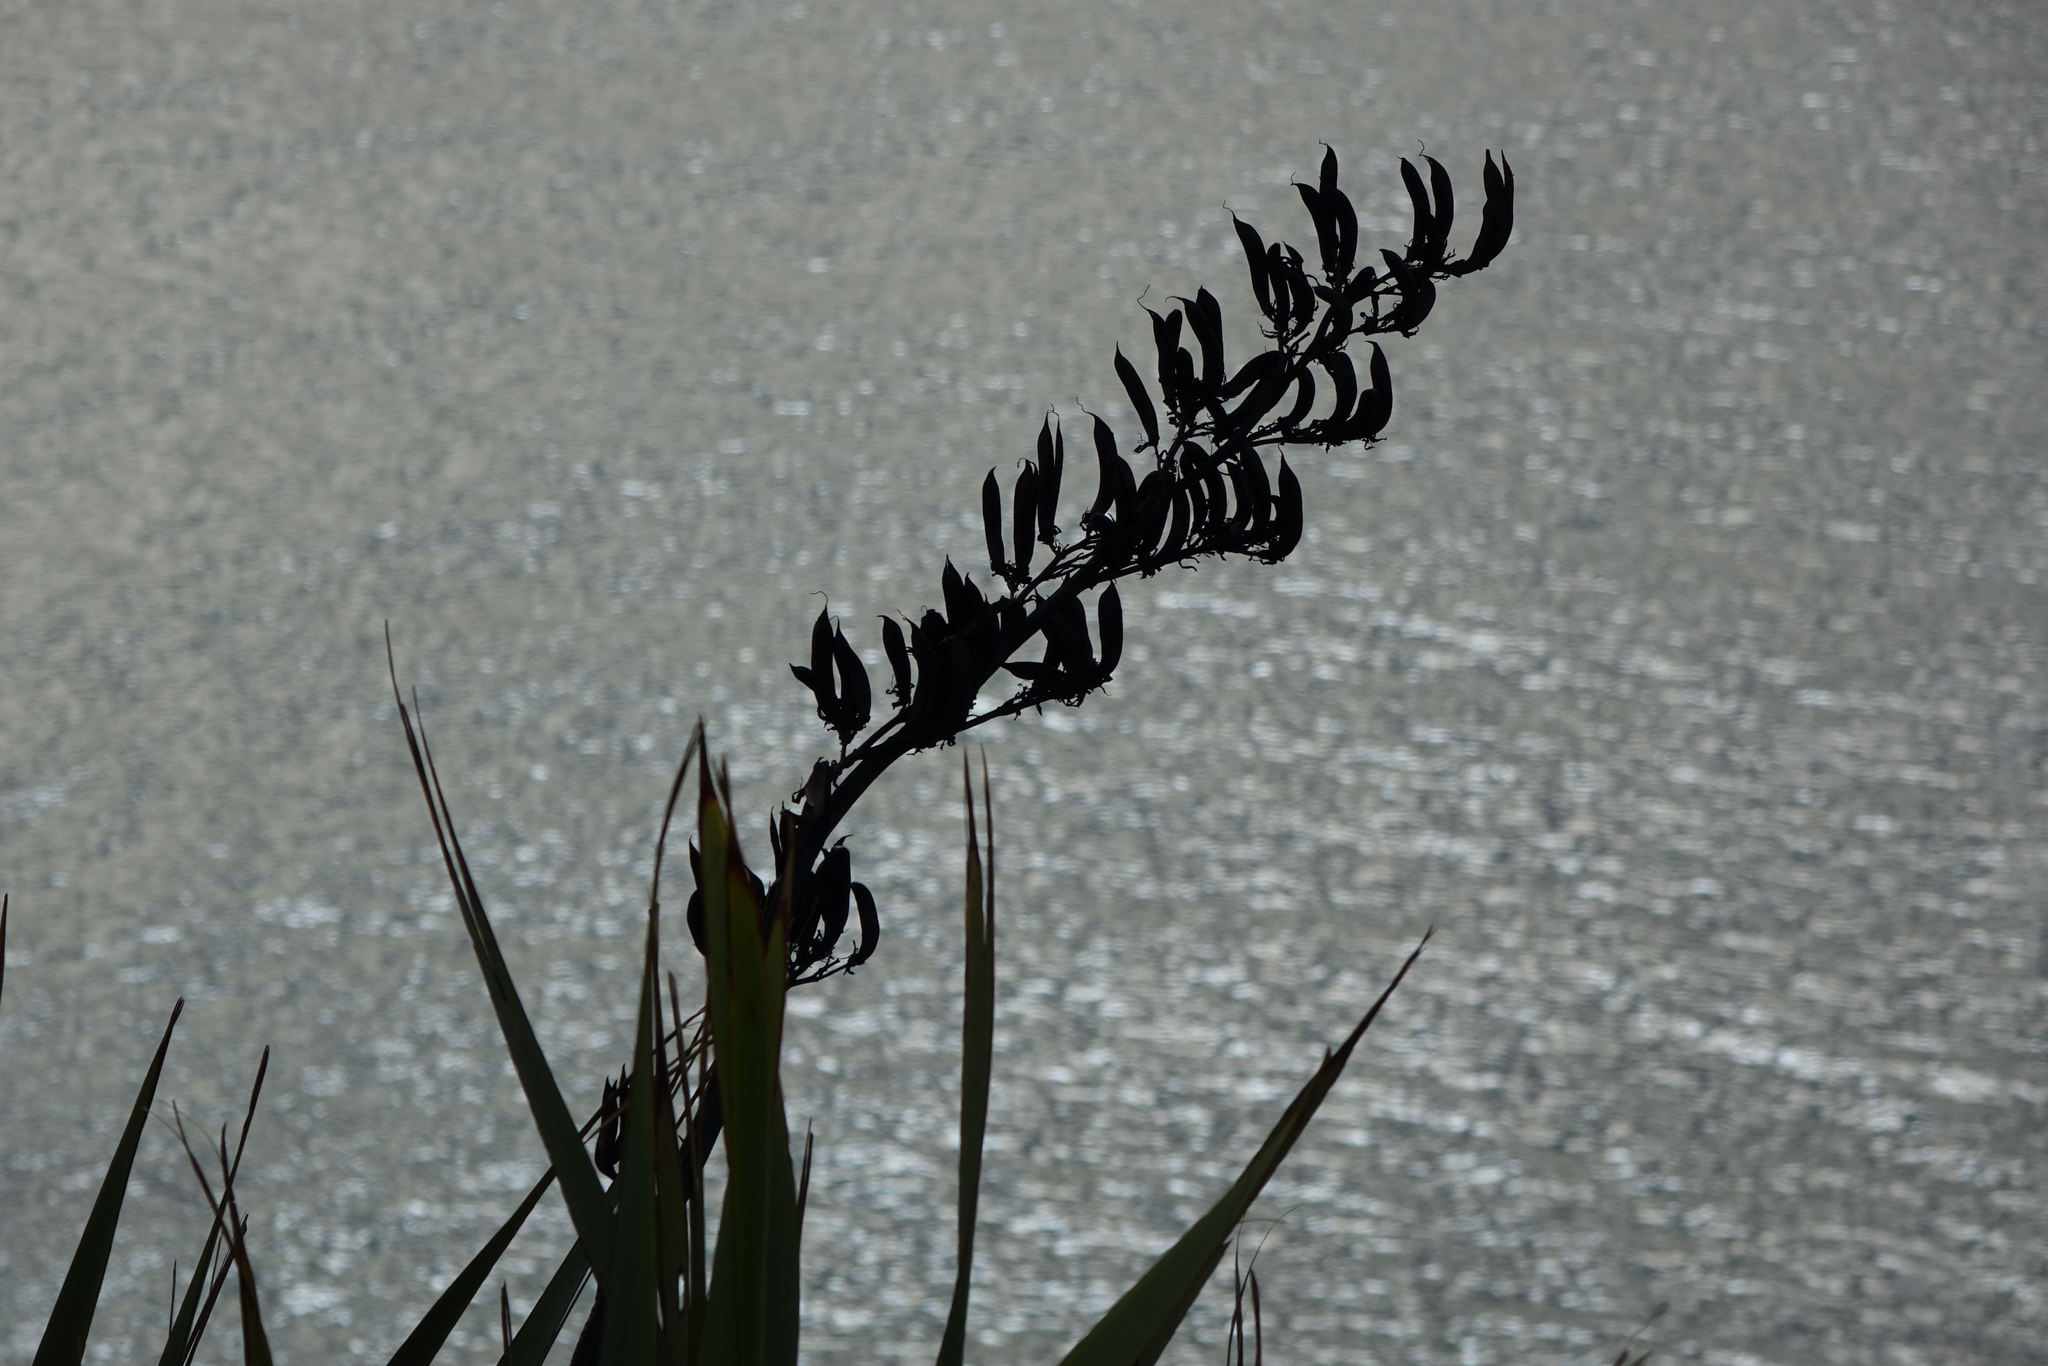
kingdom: Plantae
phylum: Tracheophyta
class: Liliopsida
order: Asparagales
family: Asphodelaceae
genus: Phormium
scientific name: Phormium tenax
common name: New zealand flax
